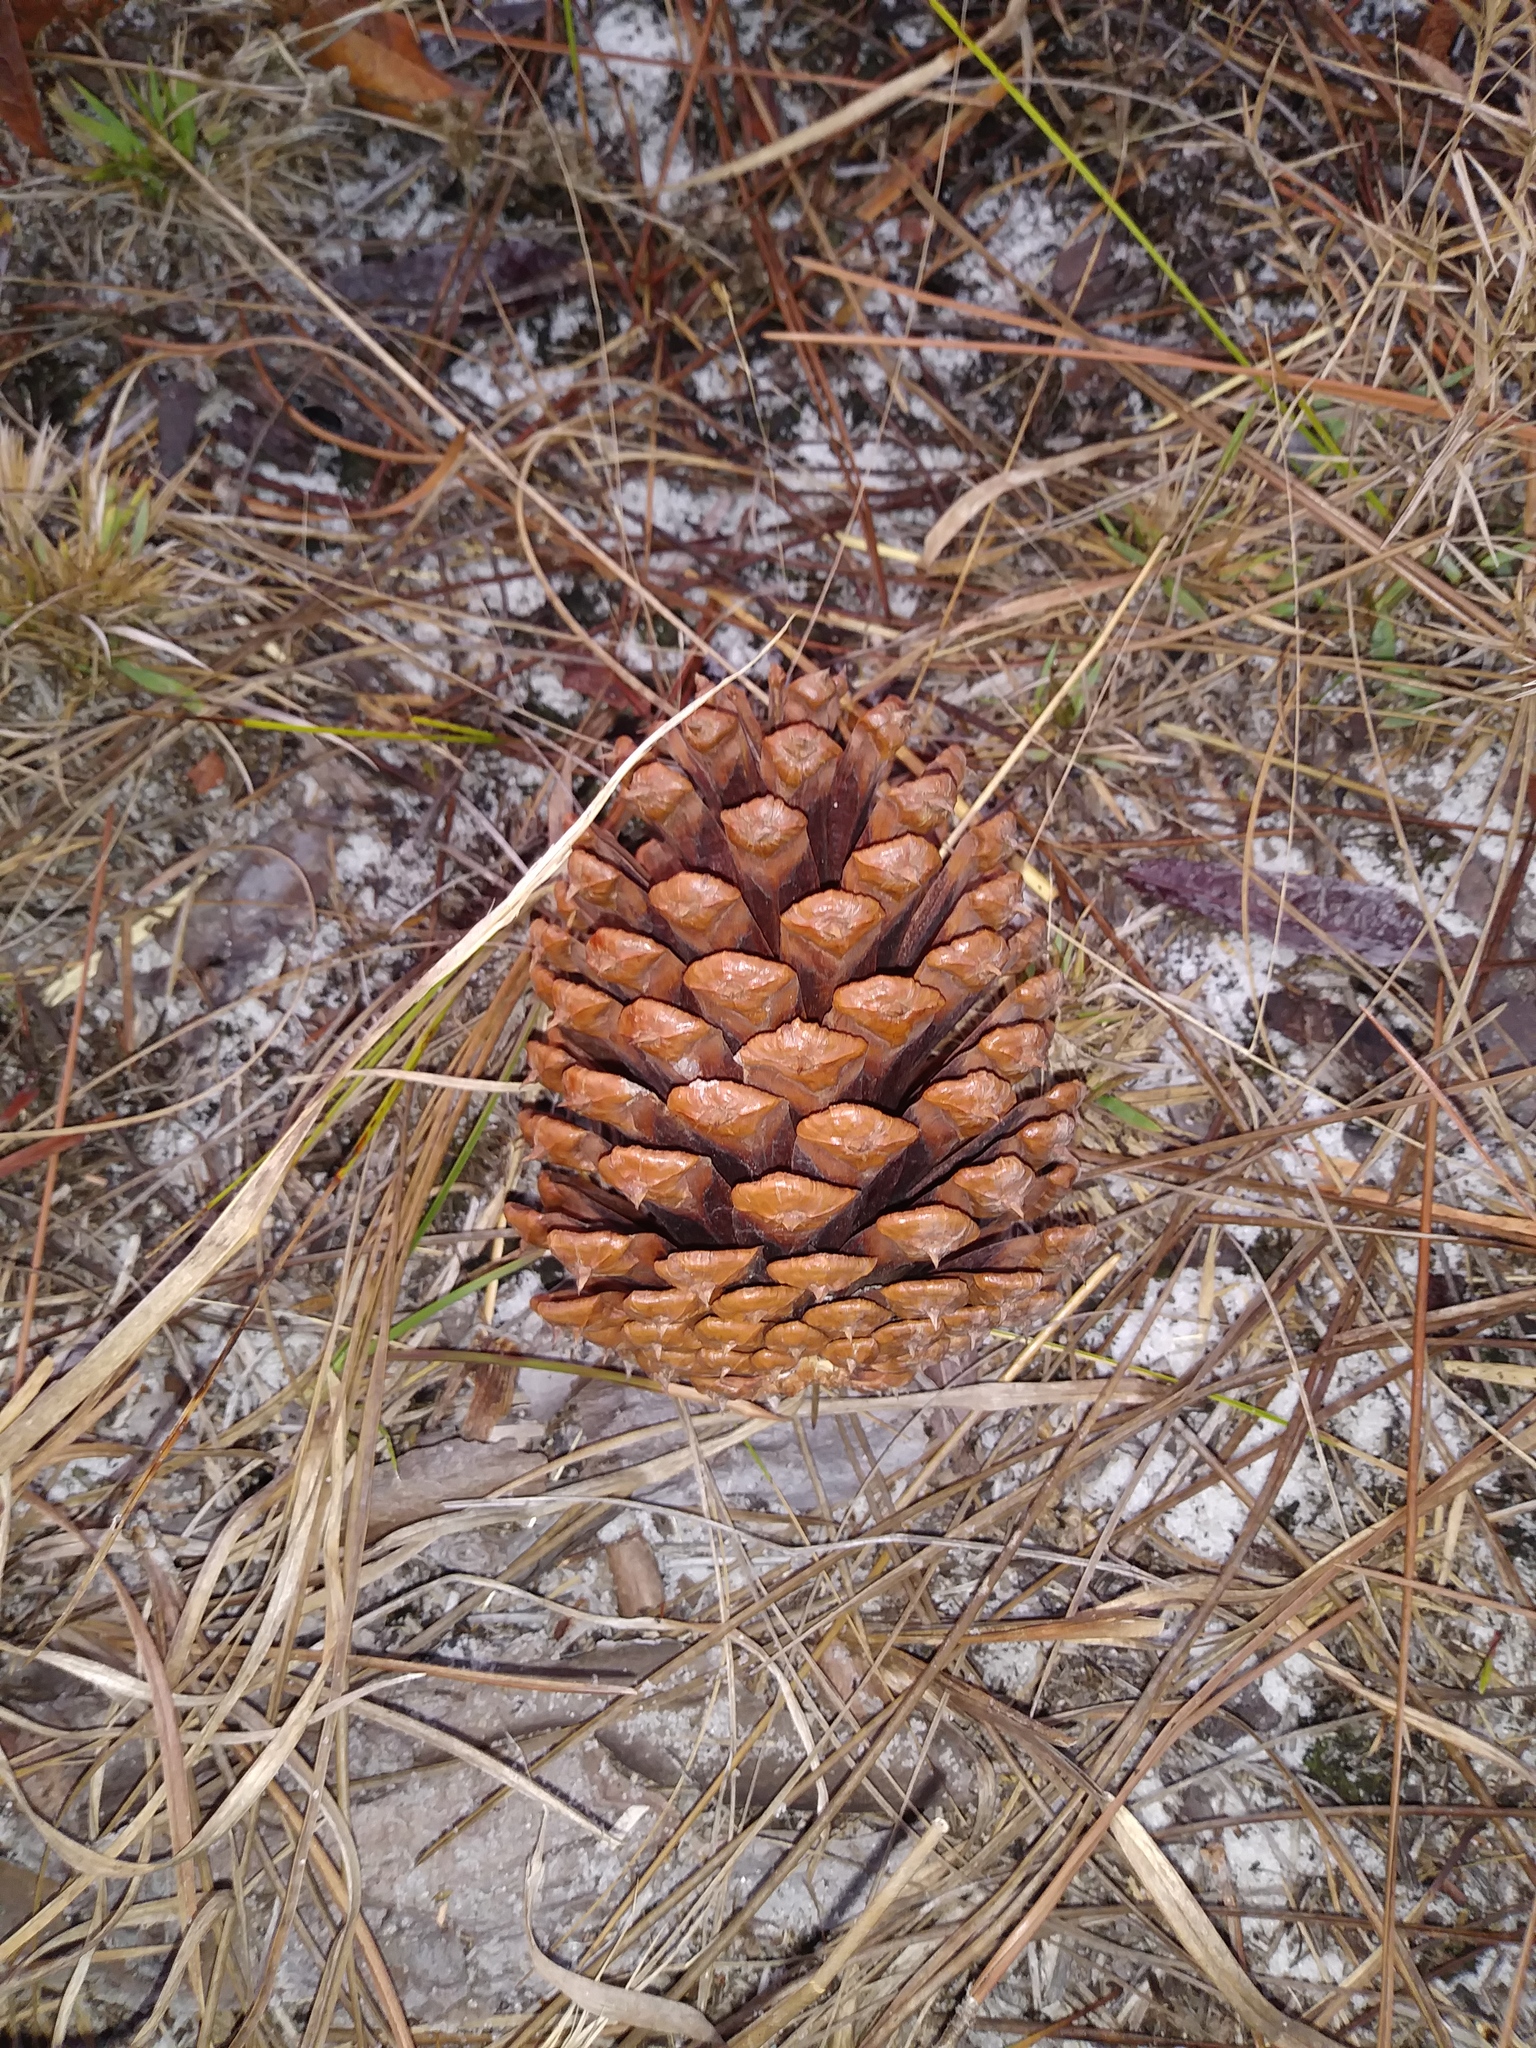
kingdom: Plantae
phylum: Tracheophyta
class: Pinopsida
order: Pinales
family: Pinaceae
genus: Pinus
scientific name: Pinus elliottii
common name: Slash pine
